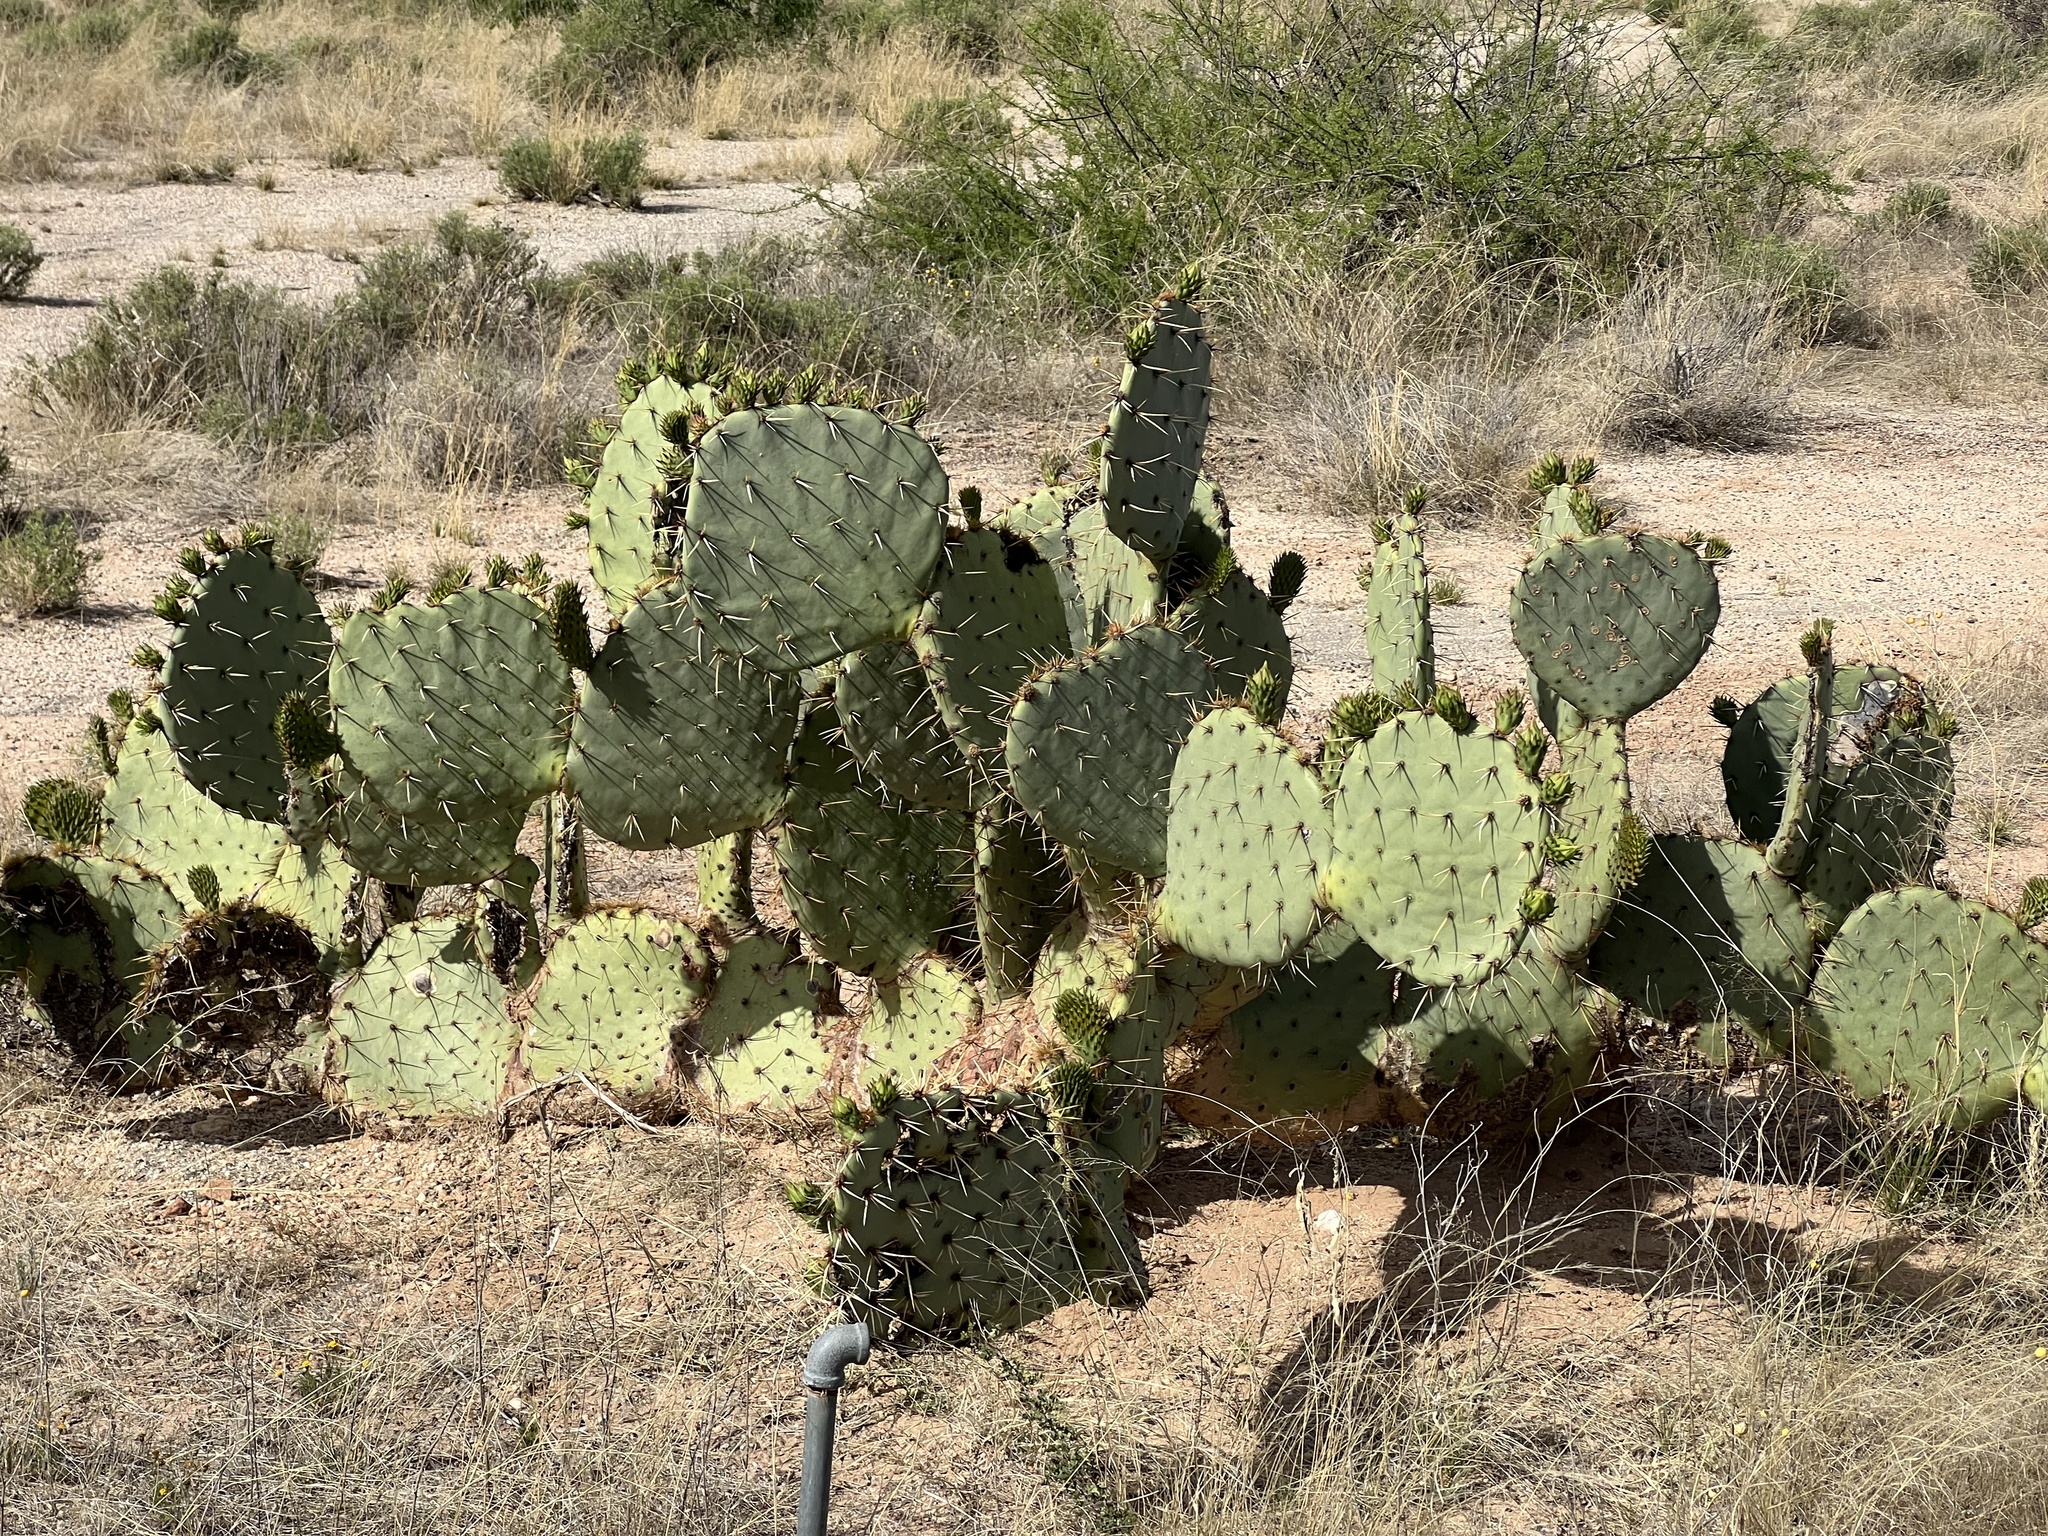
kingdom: Plantae
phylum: Tracheophyta
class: Magnoliopsida
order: Caryophyllales
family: Cactaceae
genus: Opuntia
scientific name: Opuntia engelmannii
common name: Cactus-apple
